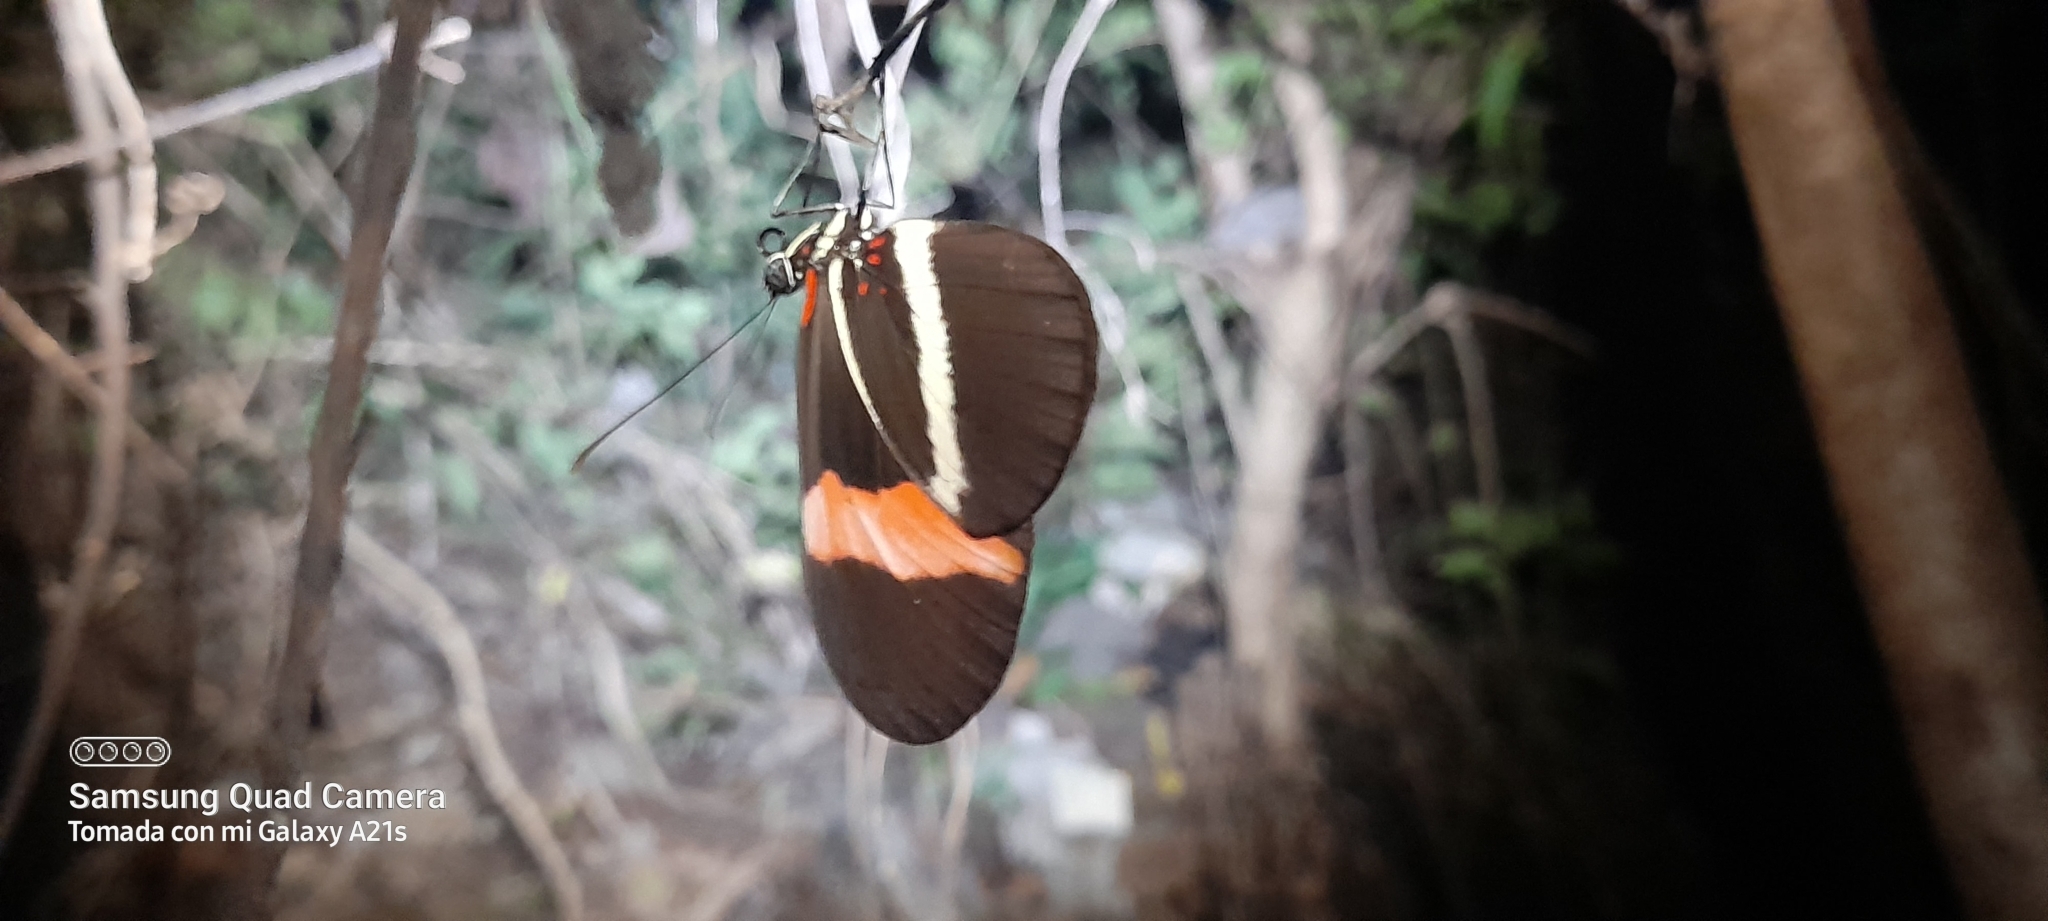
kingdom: Animalia
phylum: Arthropoda
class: Insecta
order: Lepidoptera
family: Nymphalidae
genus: Tirumala
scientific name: Tirumala petiverana
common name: Blue monarch
